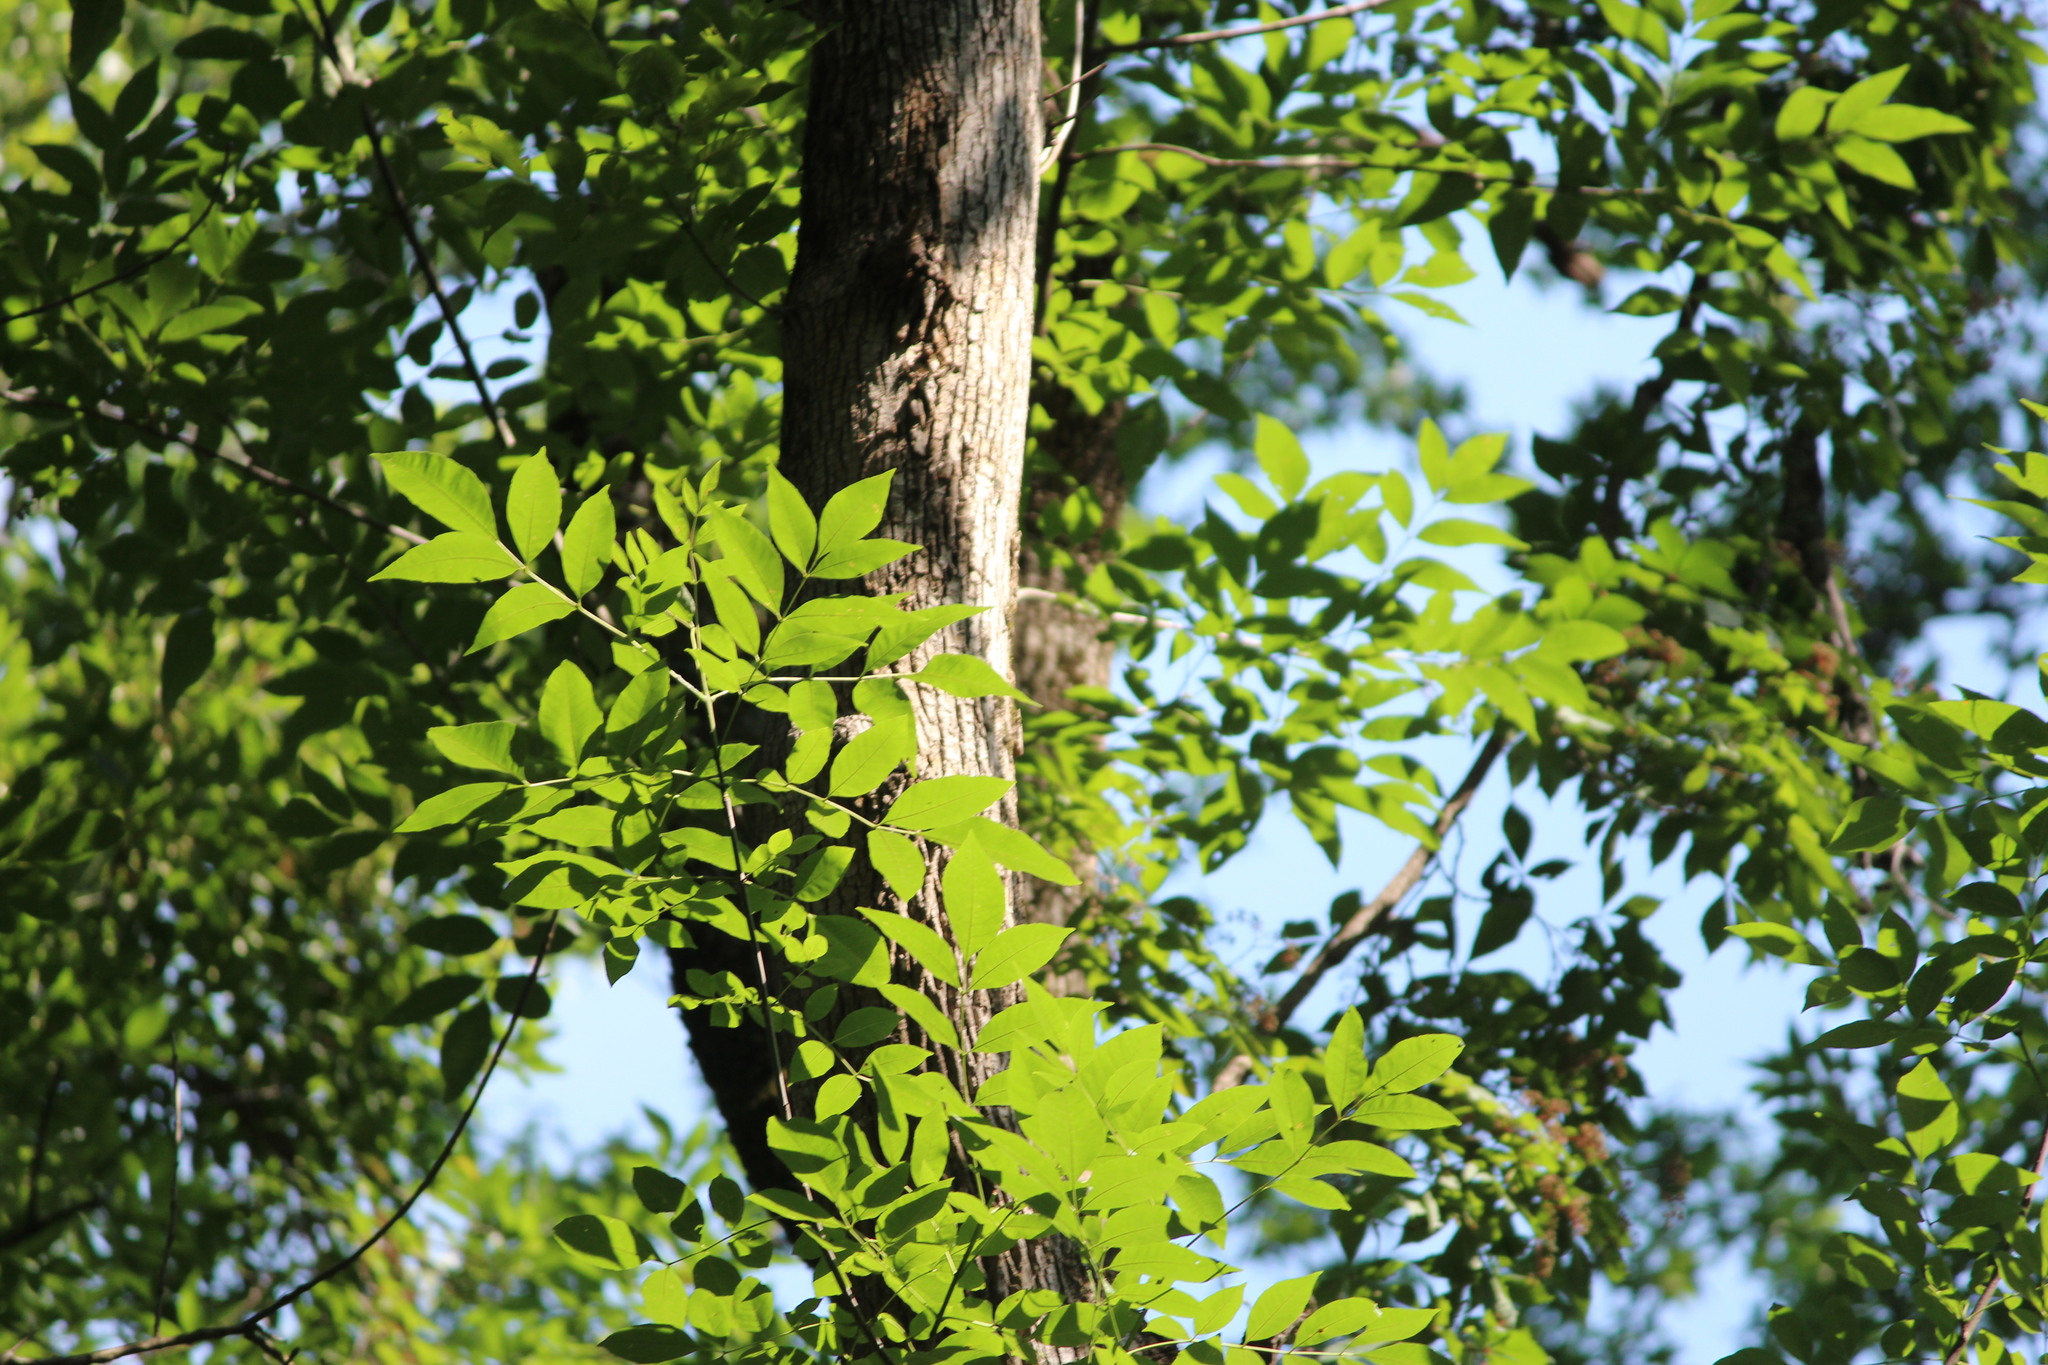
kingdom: Plantae
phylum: Tracheophyta
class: Magnoliopsida
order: Lamiales
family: Oleaceae
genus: Fraxinus
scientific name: Fraxinus americana
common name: White ash
